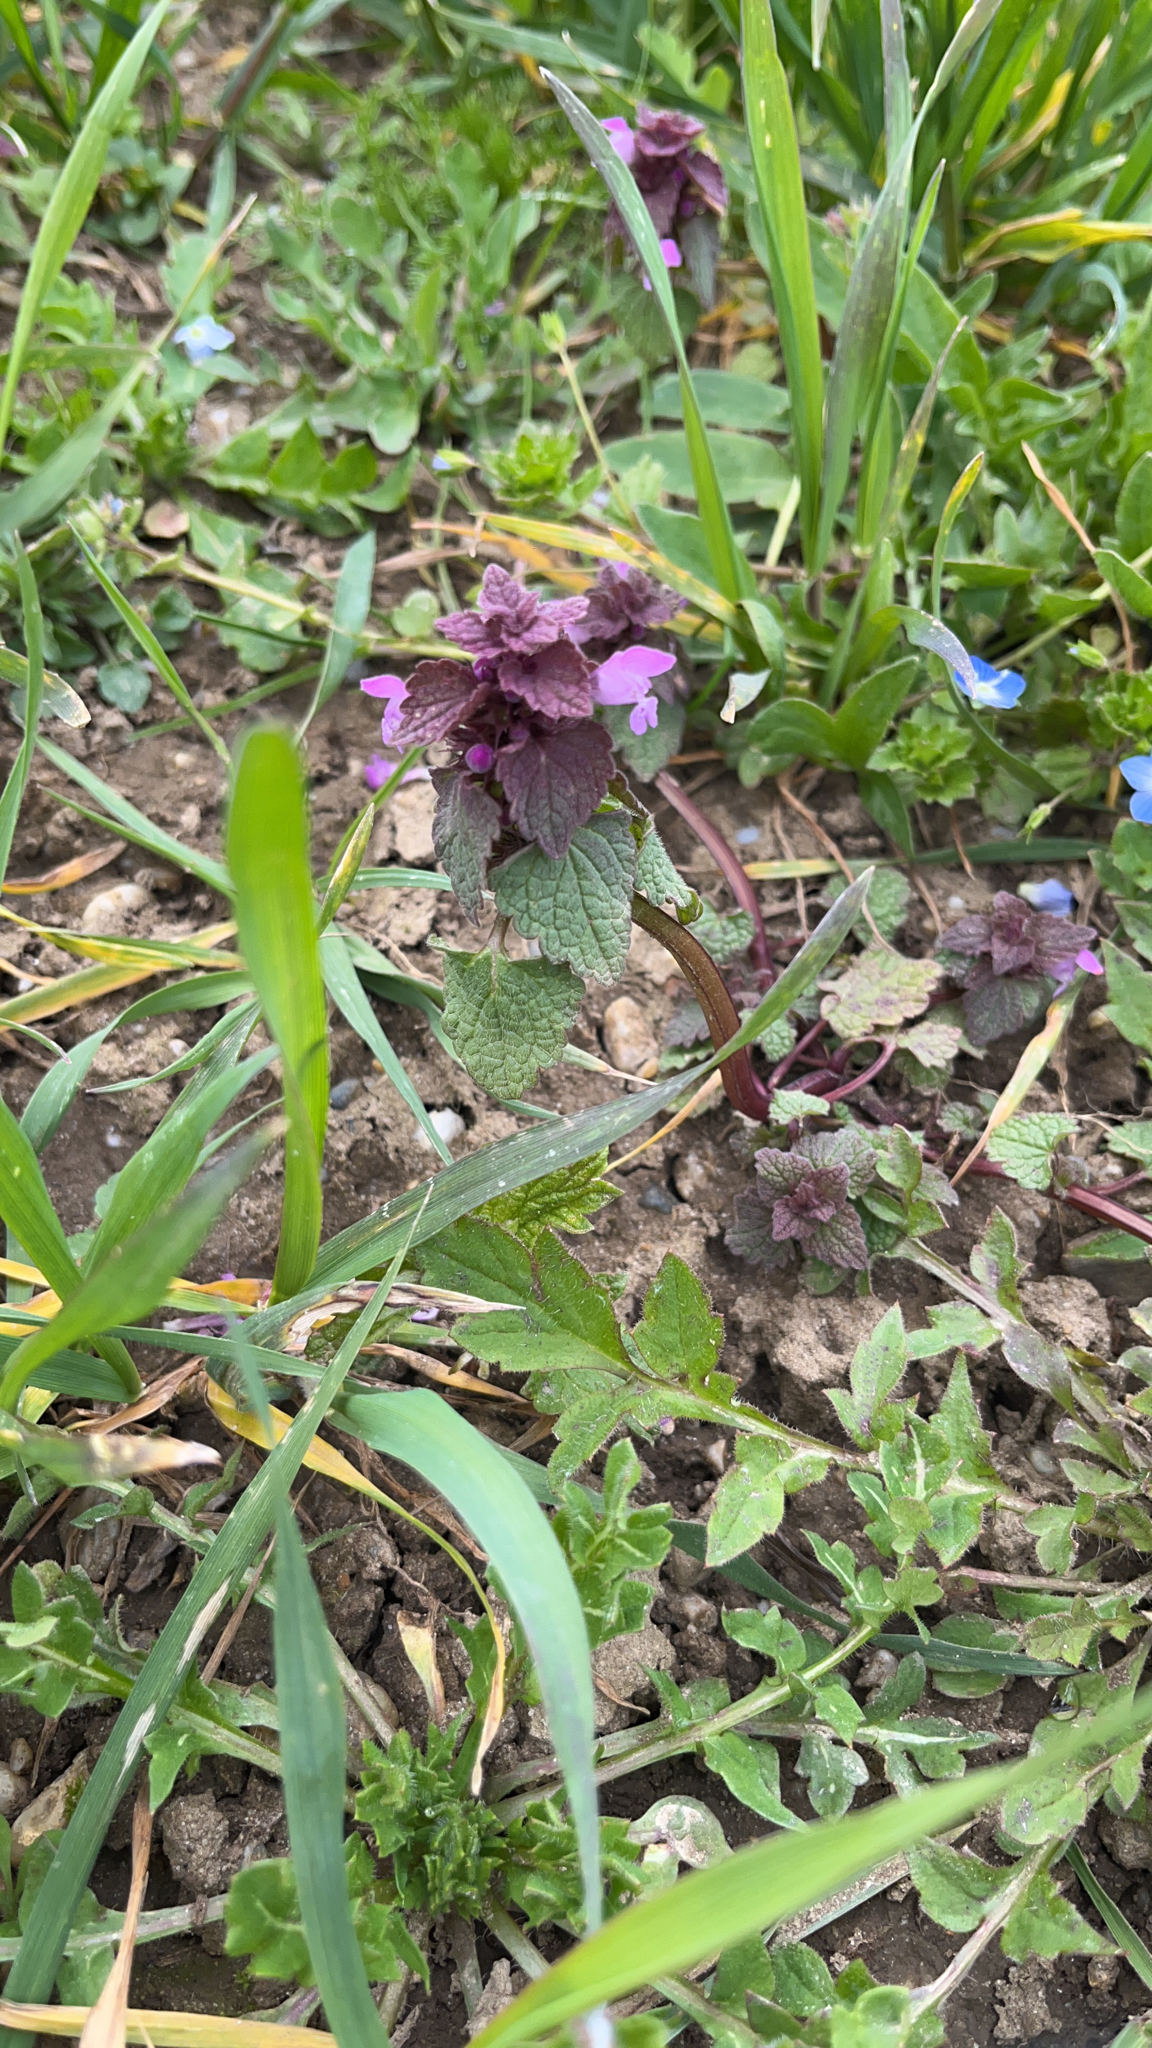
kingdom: Plantae
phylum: Tracheophyta
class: Magnoliopsida
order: Lamiales
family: Lamiaceae
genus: Lamium
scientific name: Lamium purpureum
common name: Red dead-nettle
